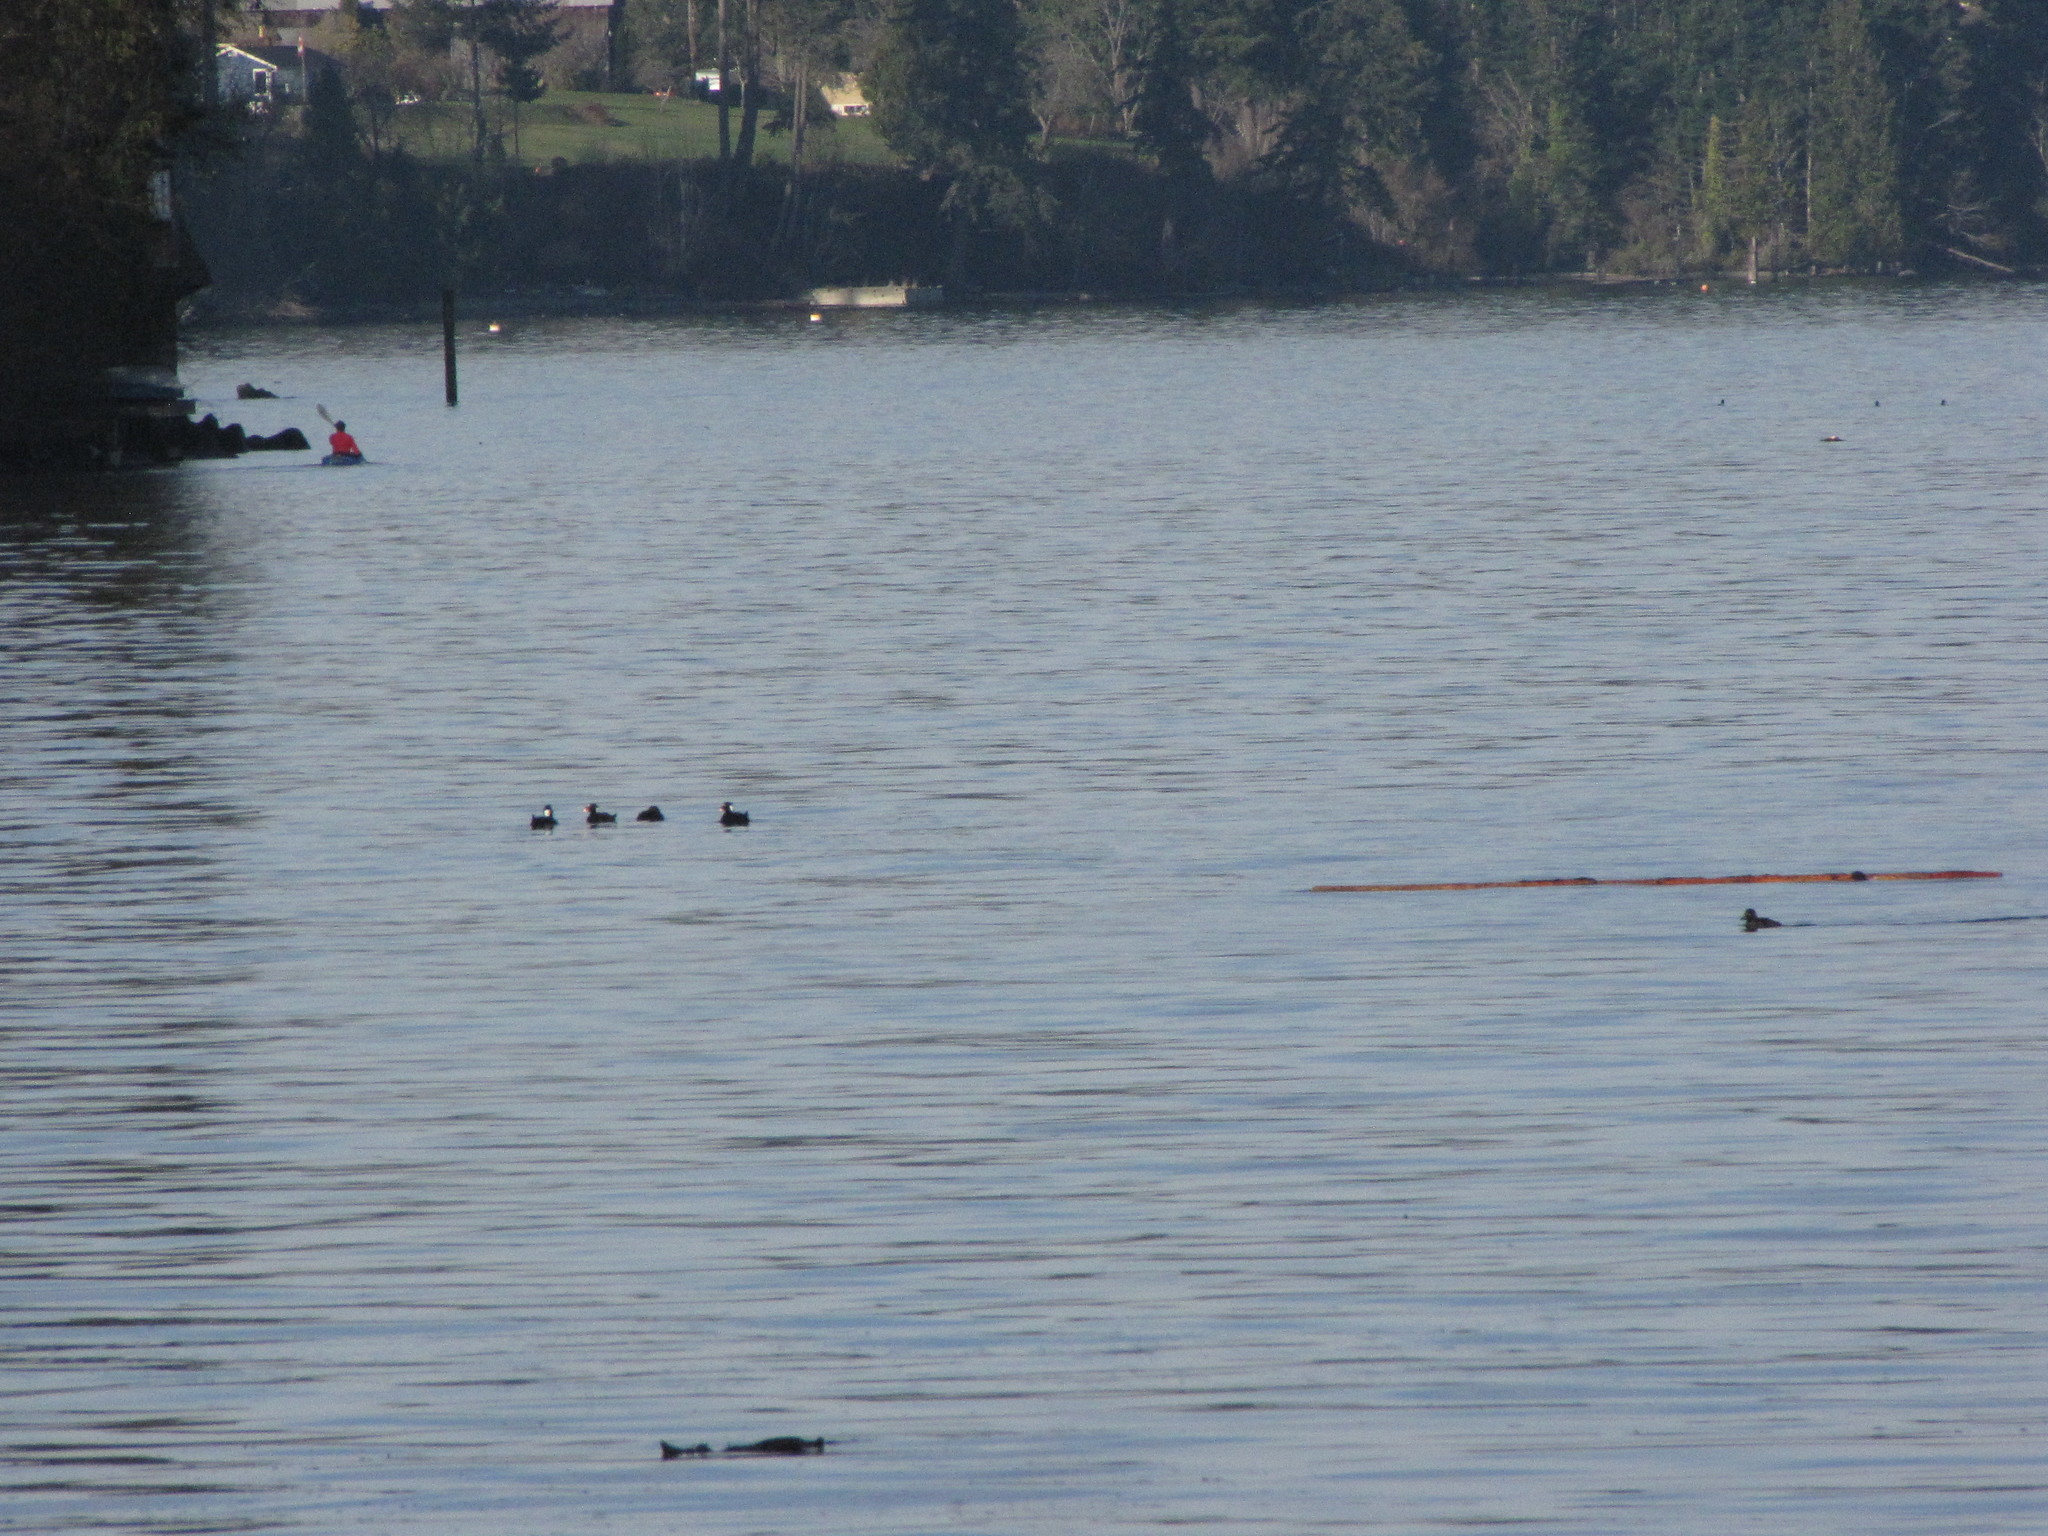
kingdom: Animalia
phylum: Chordata
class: Aves
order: Anseriformes
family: Anatidae
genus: Melanitta
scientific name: Melanitta perspicillata
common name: Surf scoter
